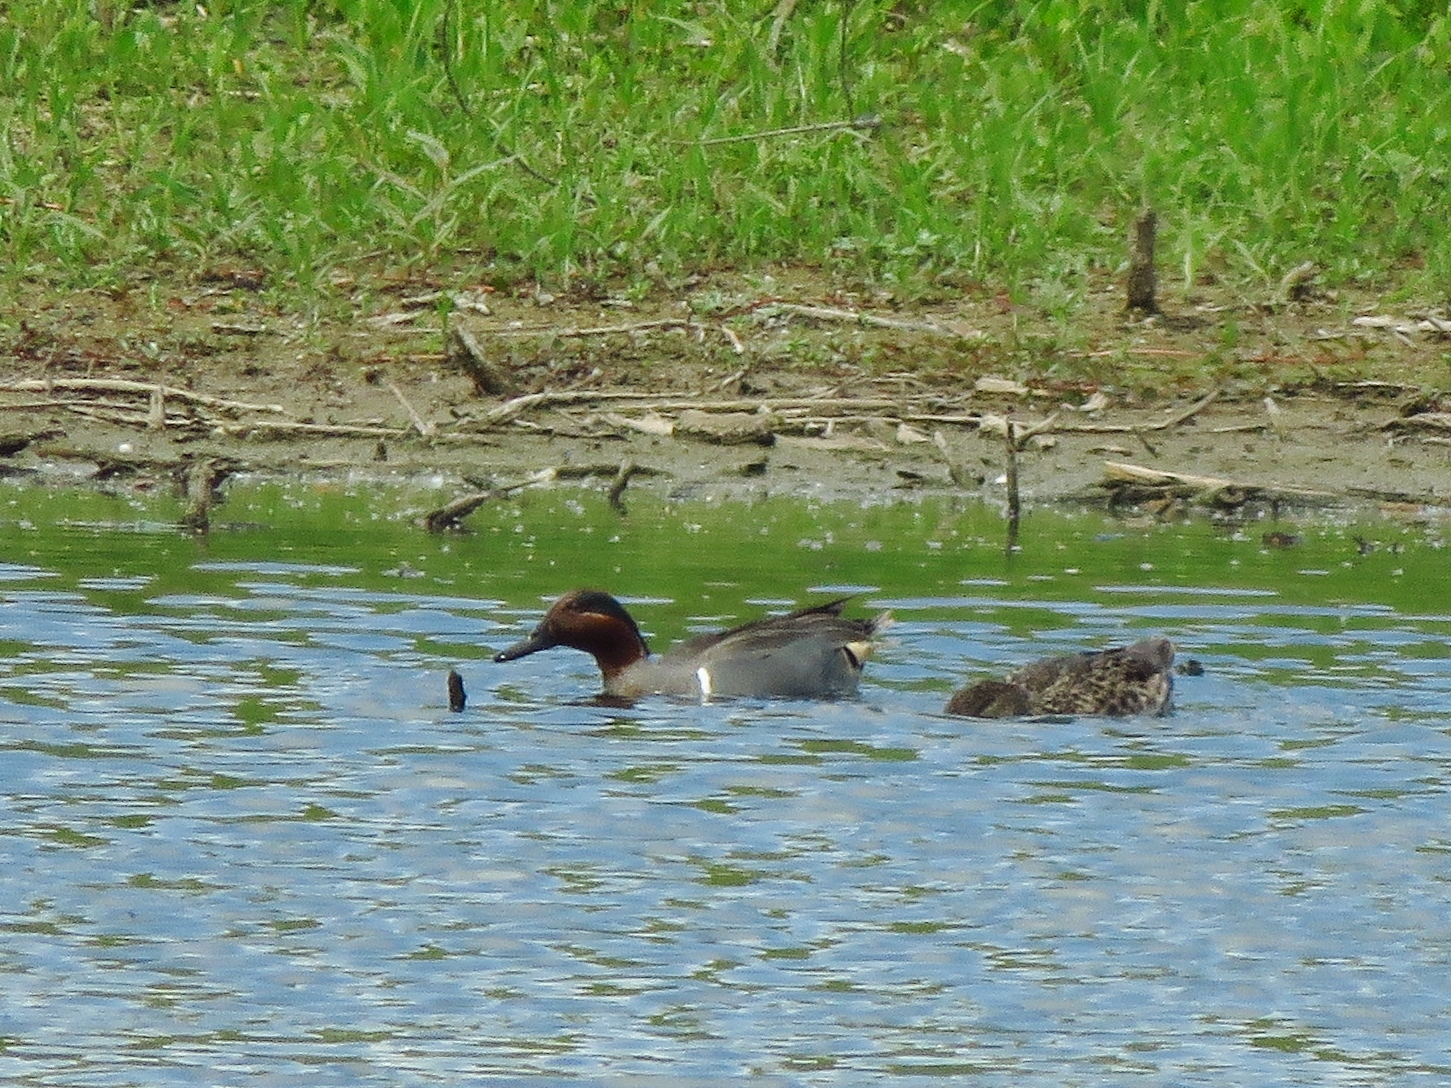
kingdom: Animalia
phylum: Chordata
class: Aves
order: Anseriformes
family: Anatidae
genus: Anas
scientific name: Anas crecca
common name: Eurasian teal
